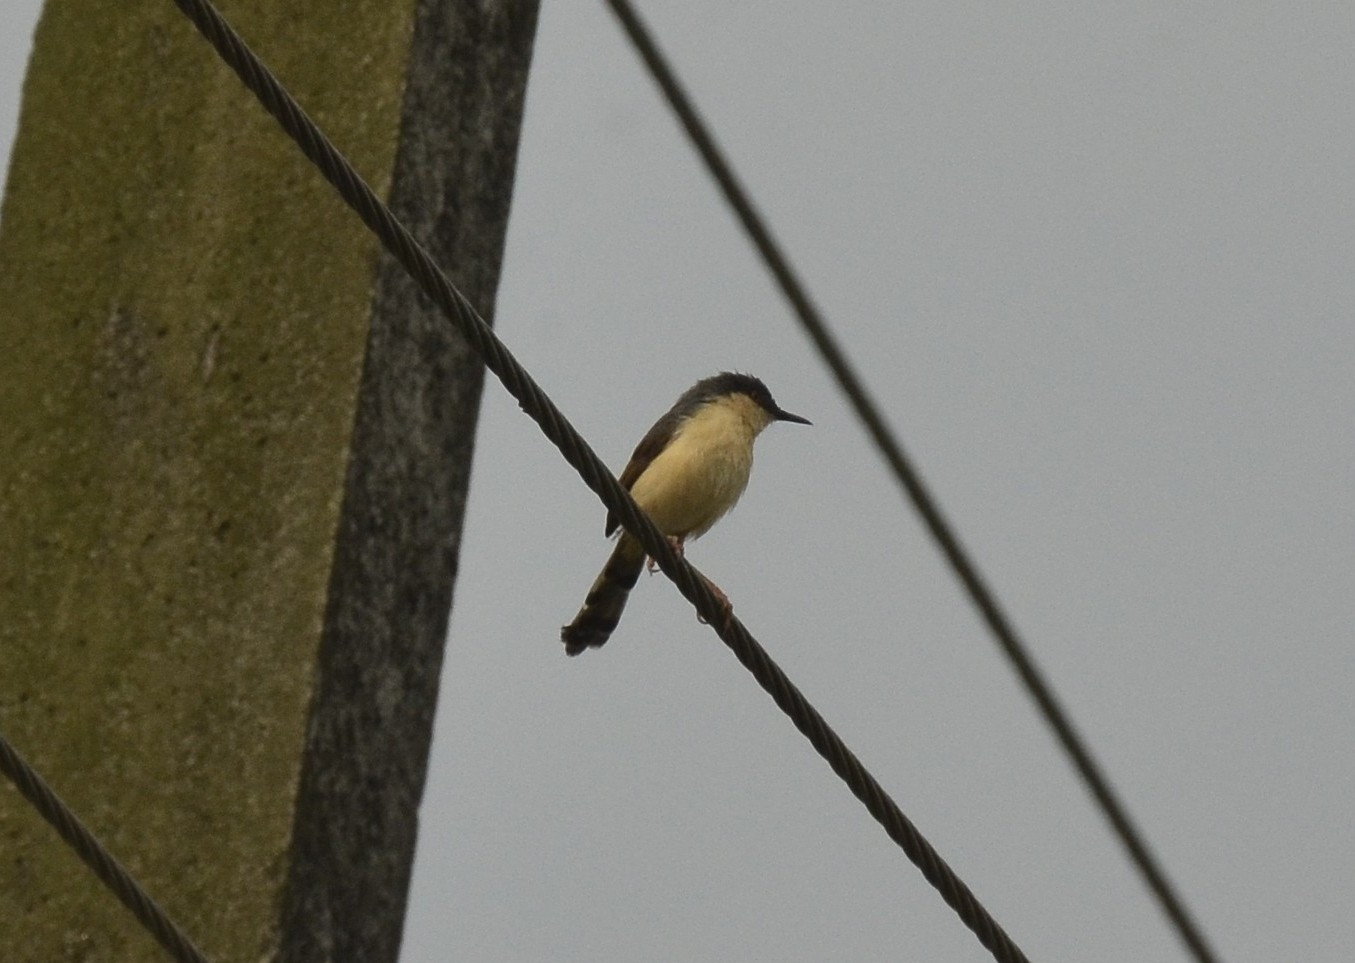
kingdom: Animalia
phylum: Chordata
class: Aves
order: Passeriformes
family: Cisticolidae
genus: Prinia
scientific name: Prinia socialis
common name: Ashy prinia
